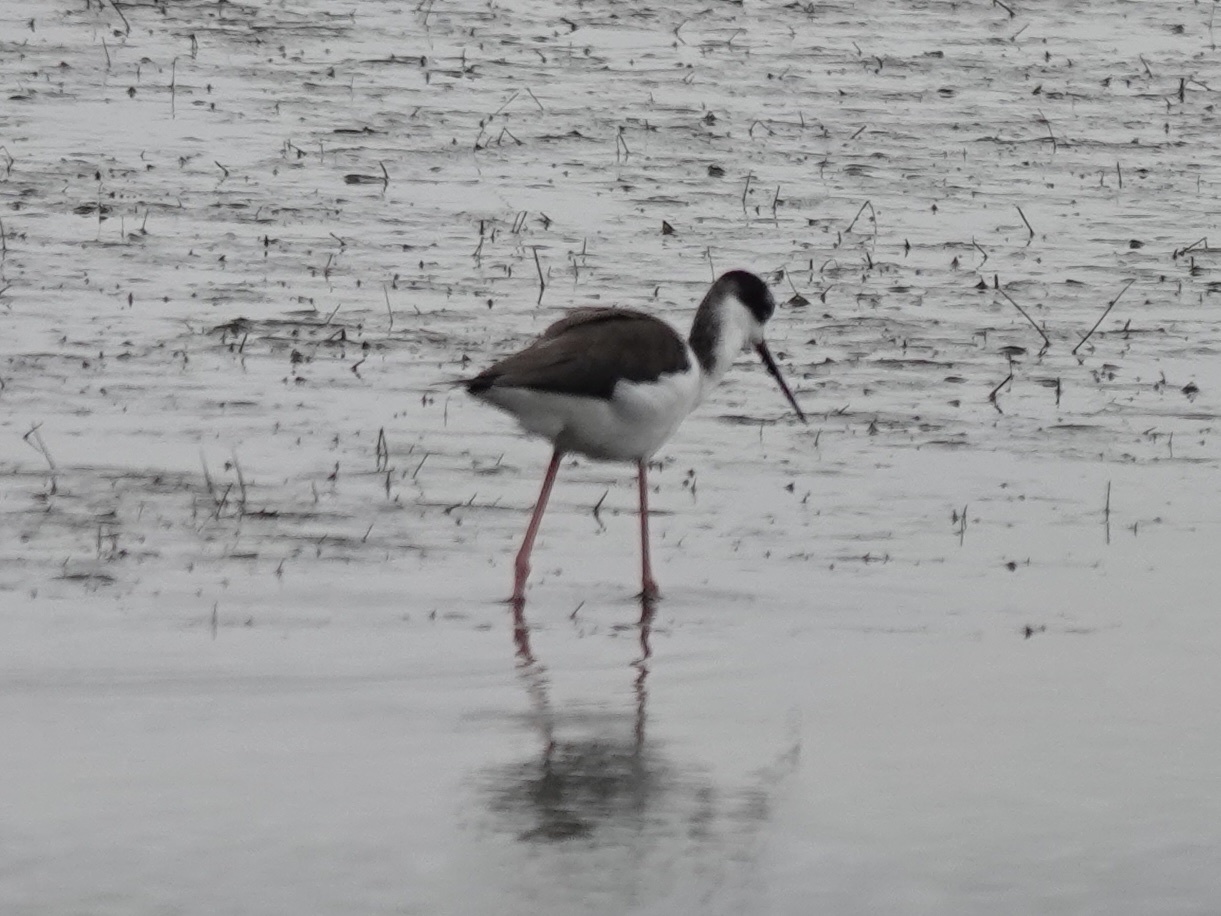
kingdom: Animalia
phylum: Chordata
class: Aves
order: Charadriiformes
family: Recurvirostridae
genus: Himantopus
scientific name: Himantopus mexicanus
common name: Black-necked stilt
